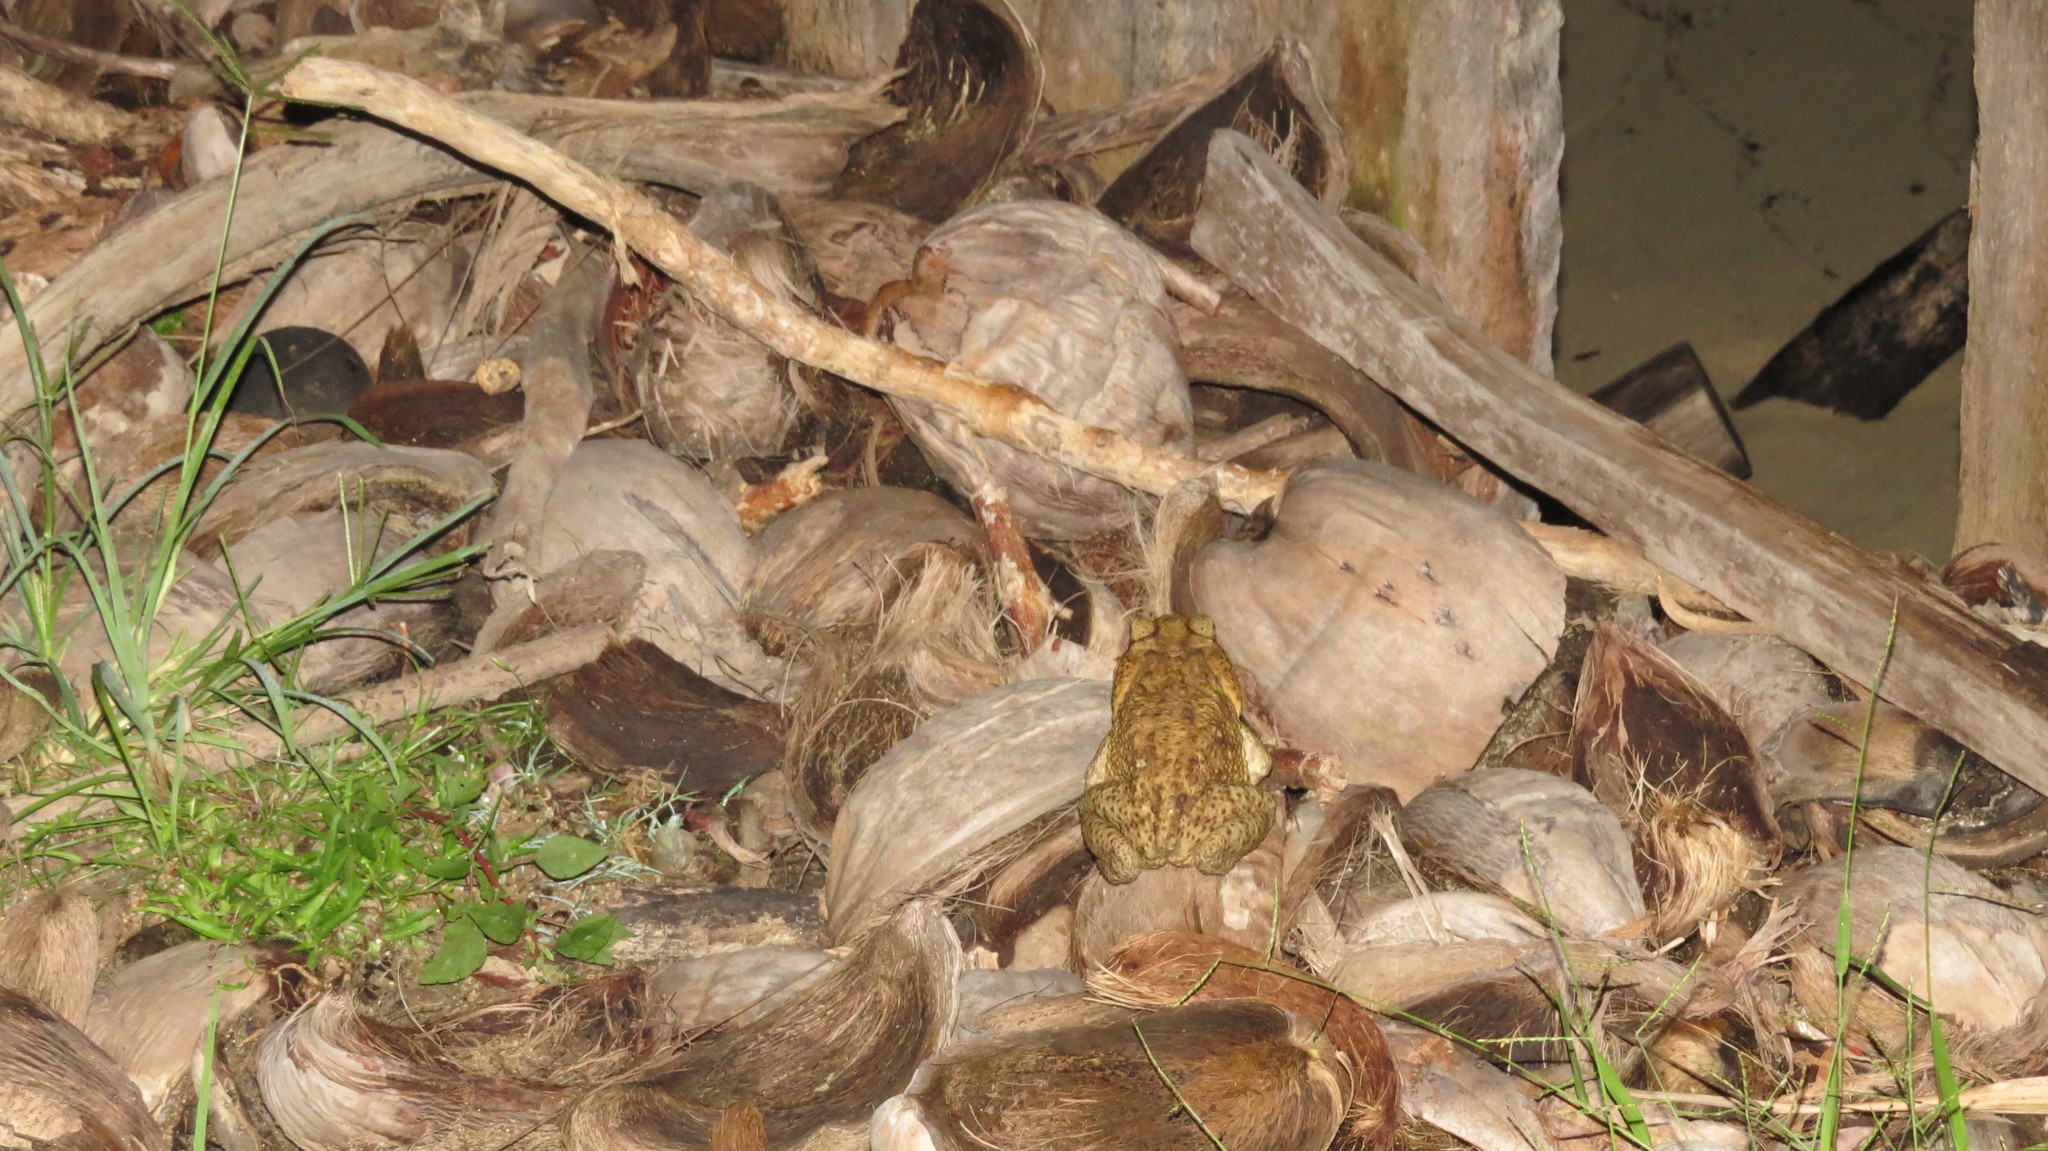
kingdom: Animalia
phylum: Chordata
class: Amphibia
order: Anura
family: Bufonidae
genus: Rhinella
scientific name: Rhinella horribilis
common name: Mesoamerican cane toad
